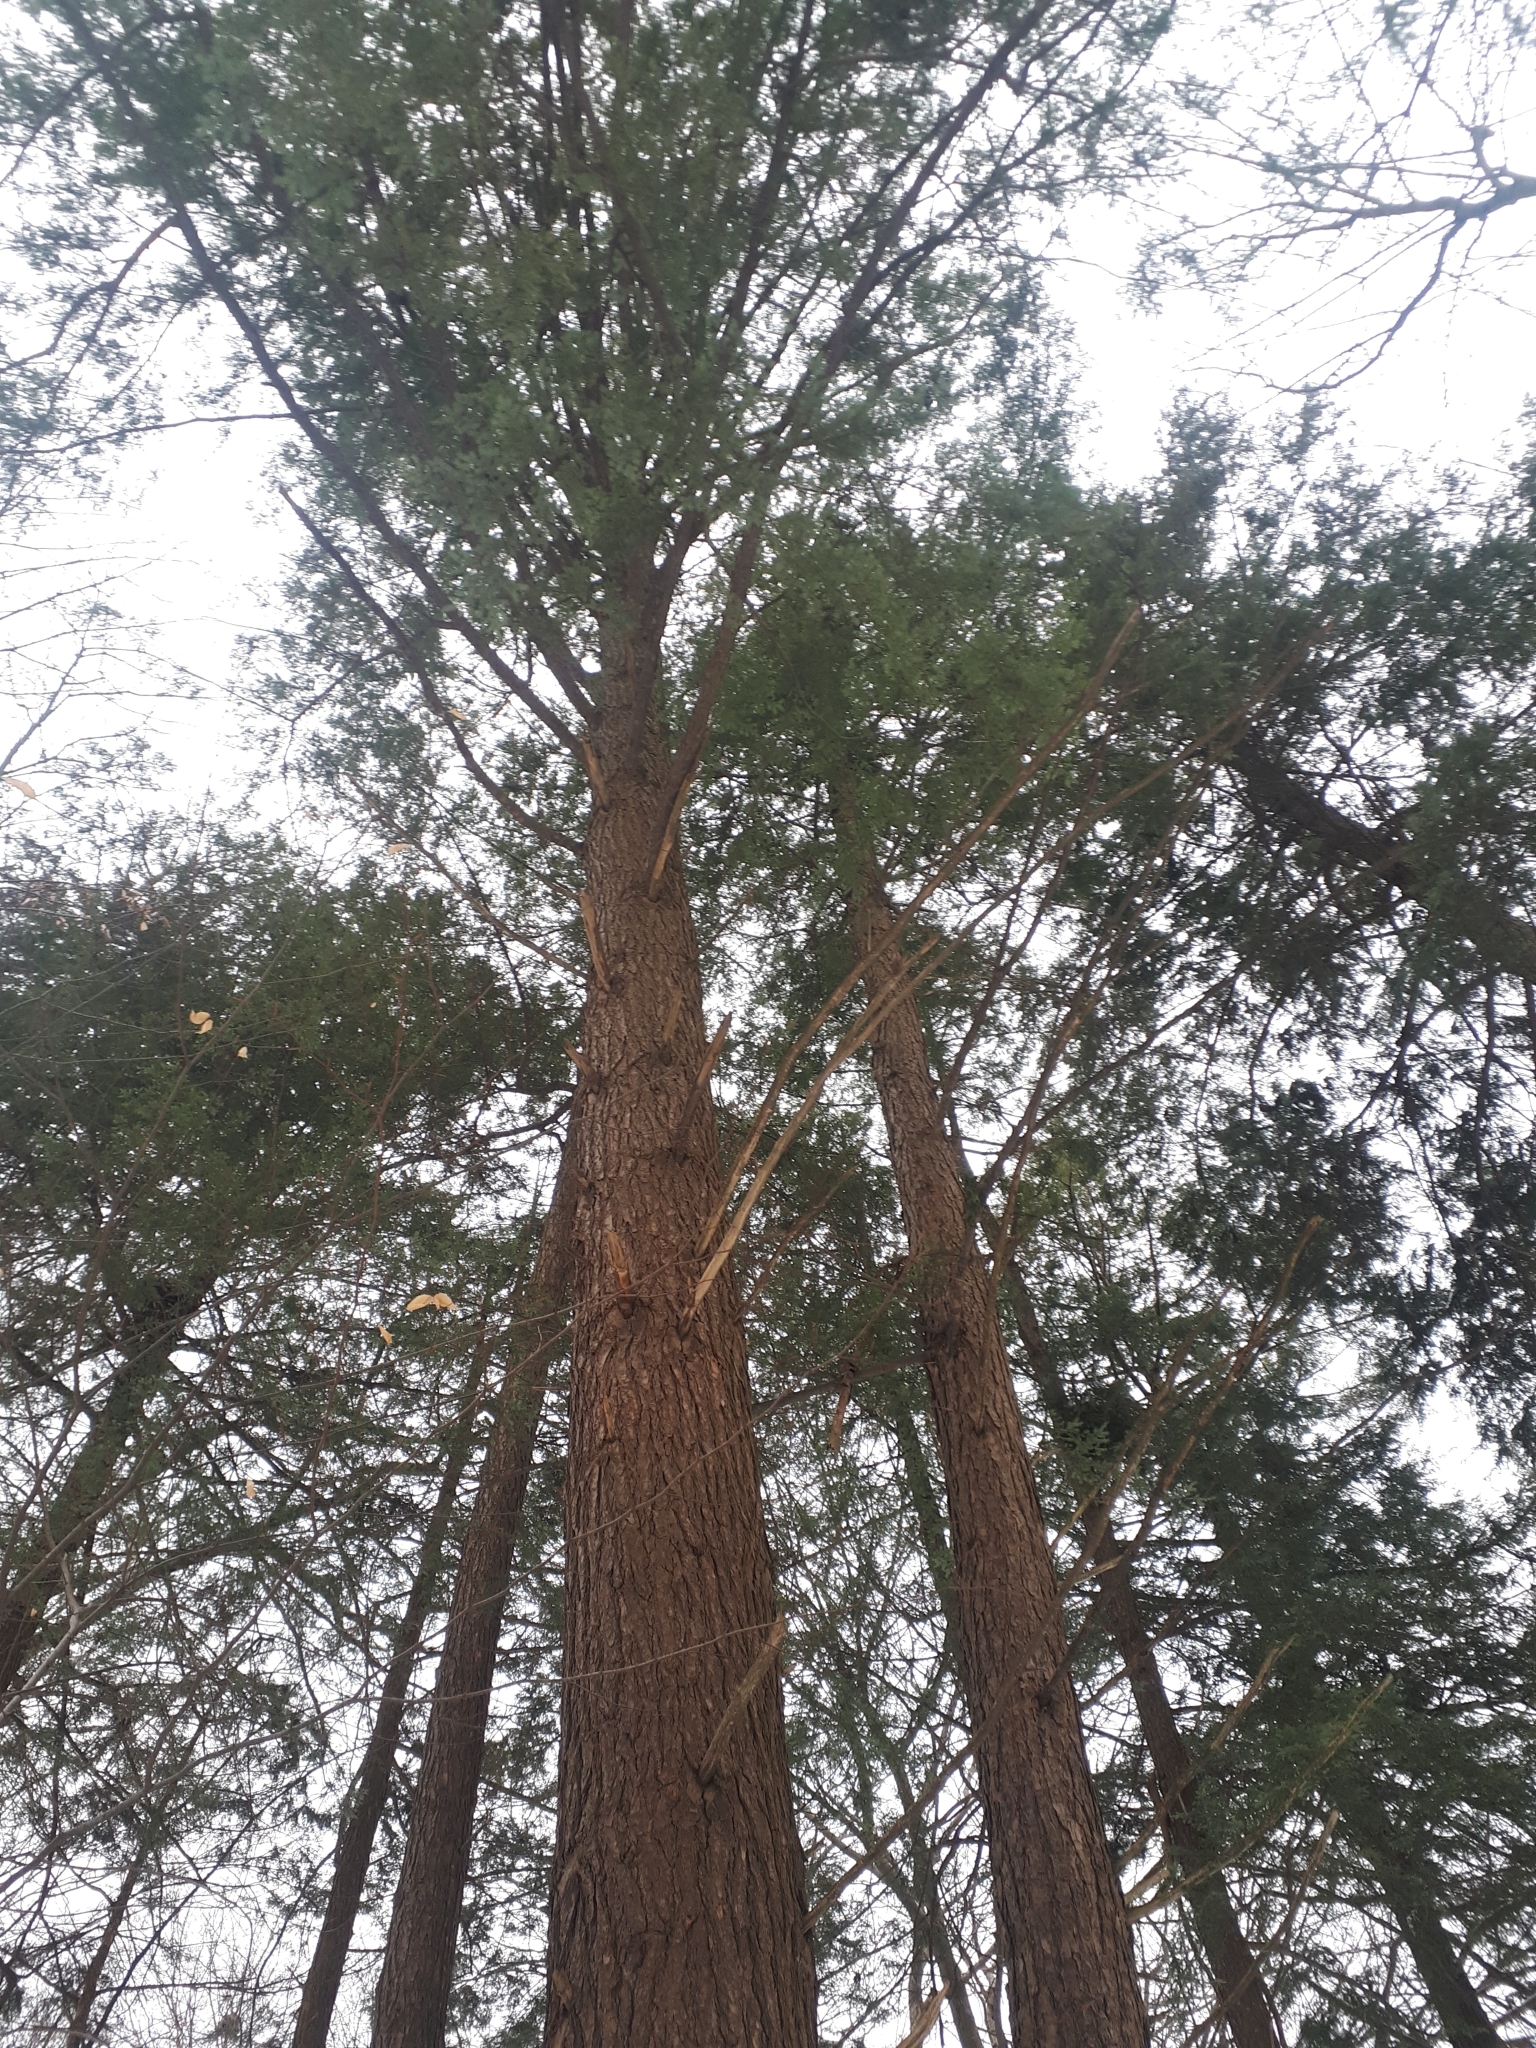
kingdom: Plantae
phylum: Tracheophyta
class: Pinopsida
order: Pinales
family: Pinaceae
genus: Tsuga
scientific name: Tsuga canadensis
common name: Eastern hemlock
